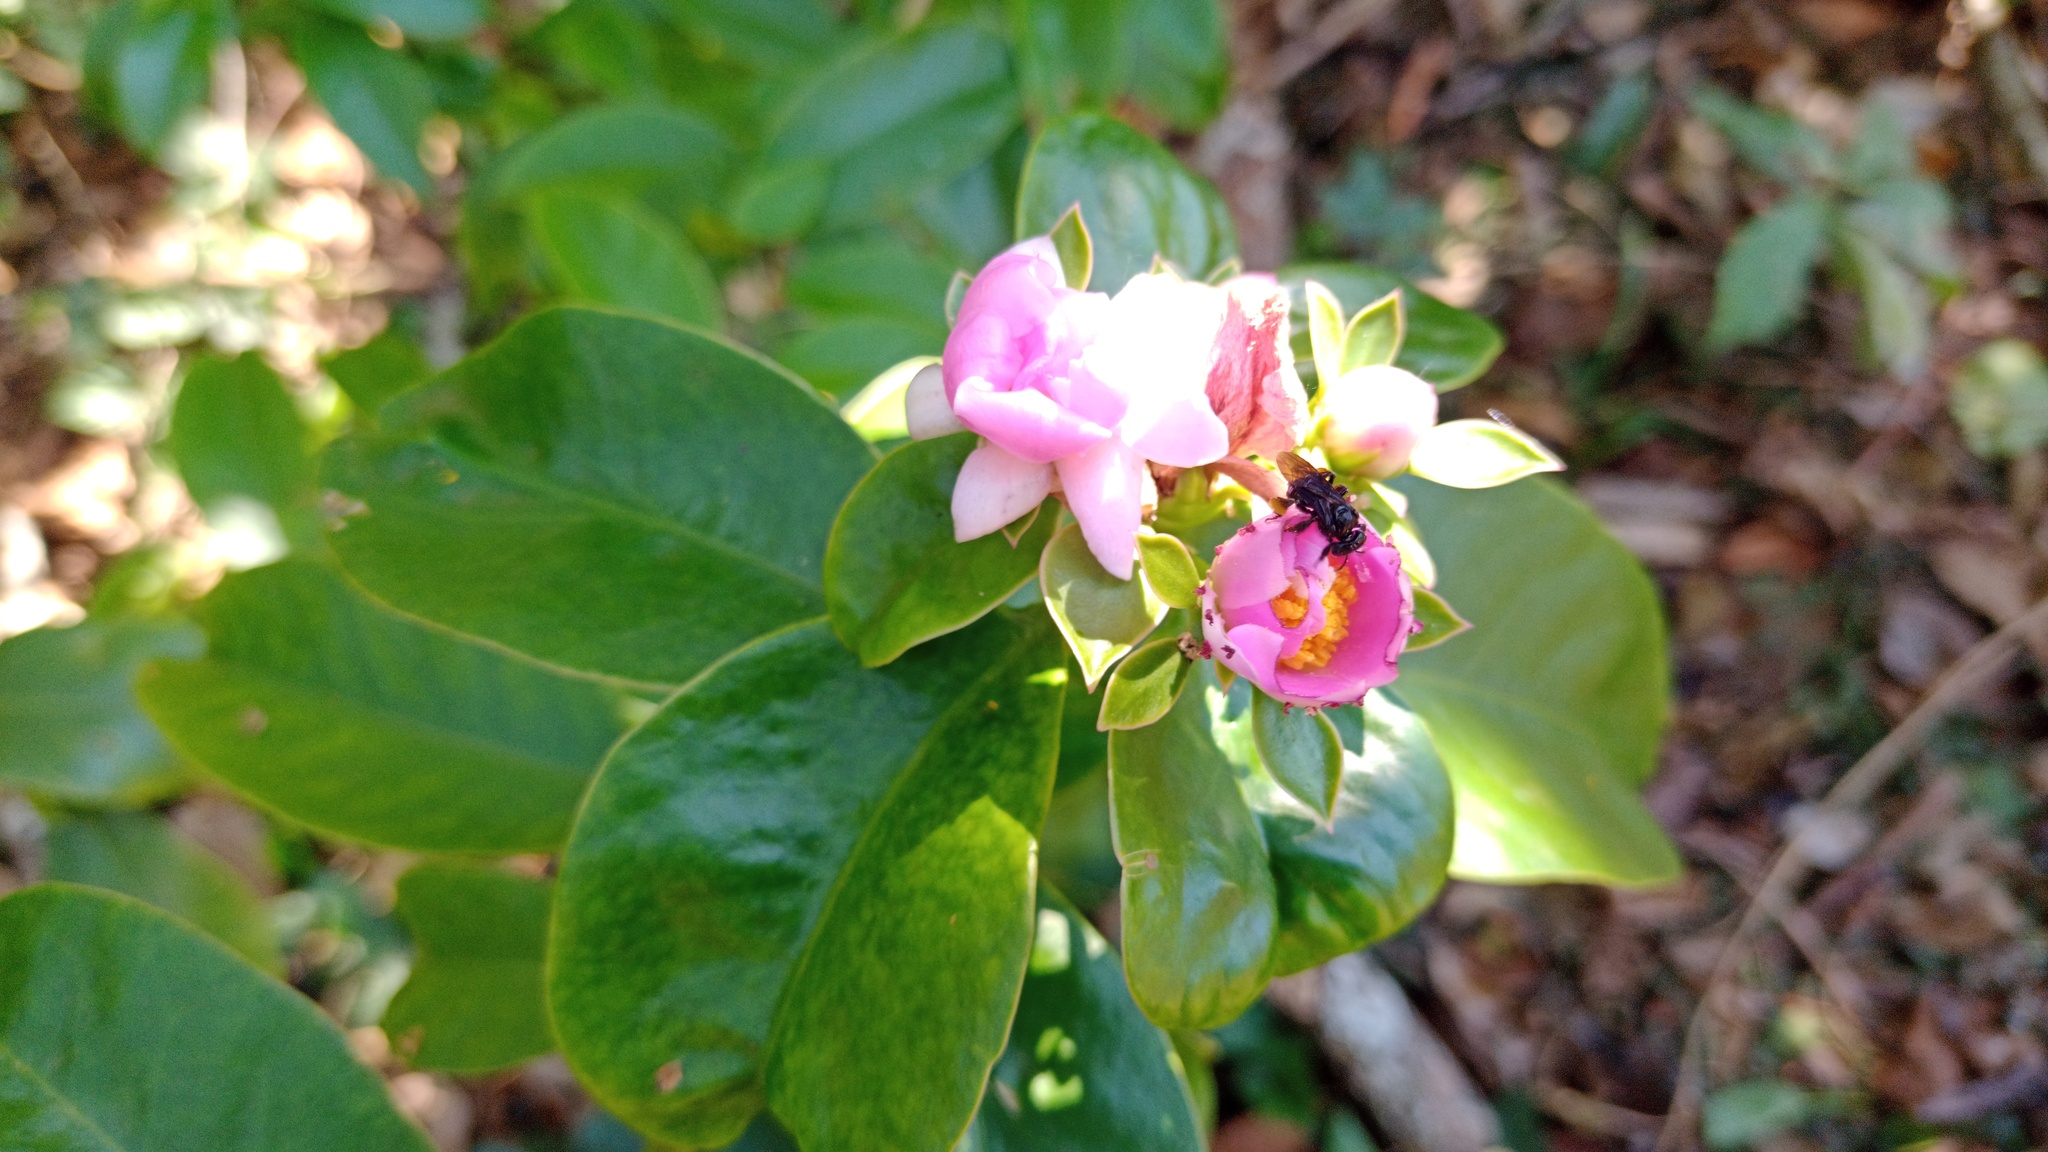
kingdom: Plantae
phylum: Tracheophyta
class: Magnoliopsida
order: Caryophyllales
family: Cactaceae
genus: Pereskia
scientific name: Pereskia grandifolia
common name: Rose cactus
